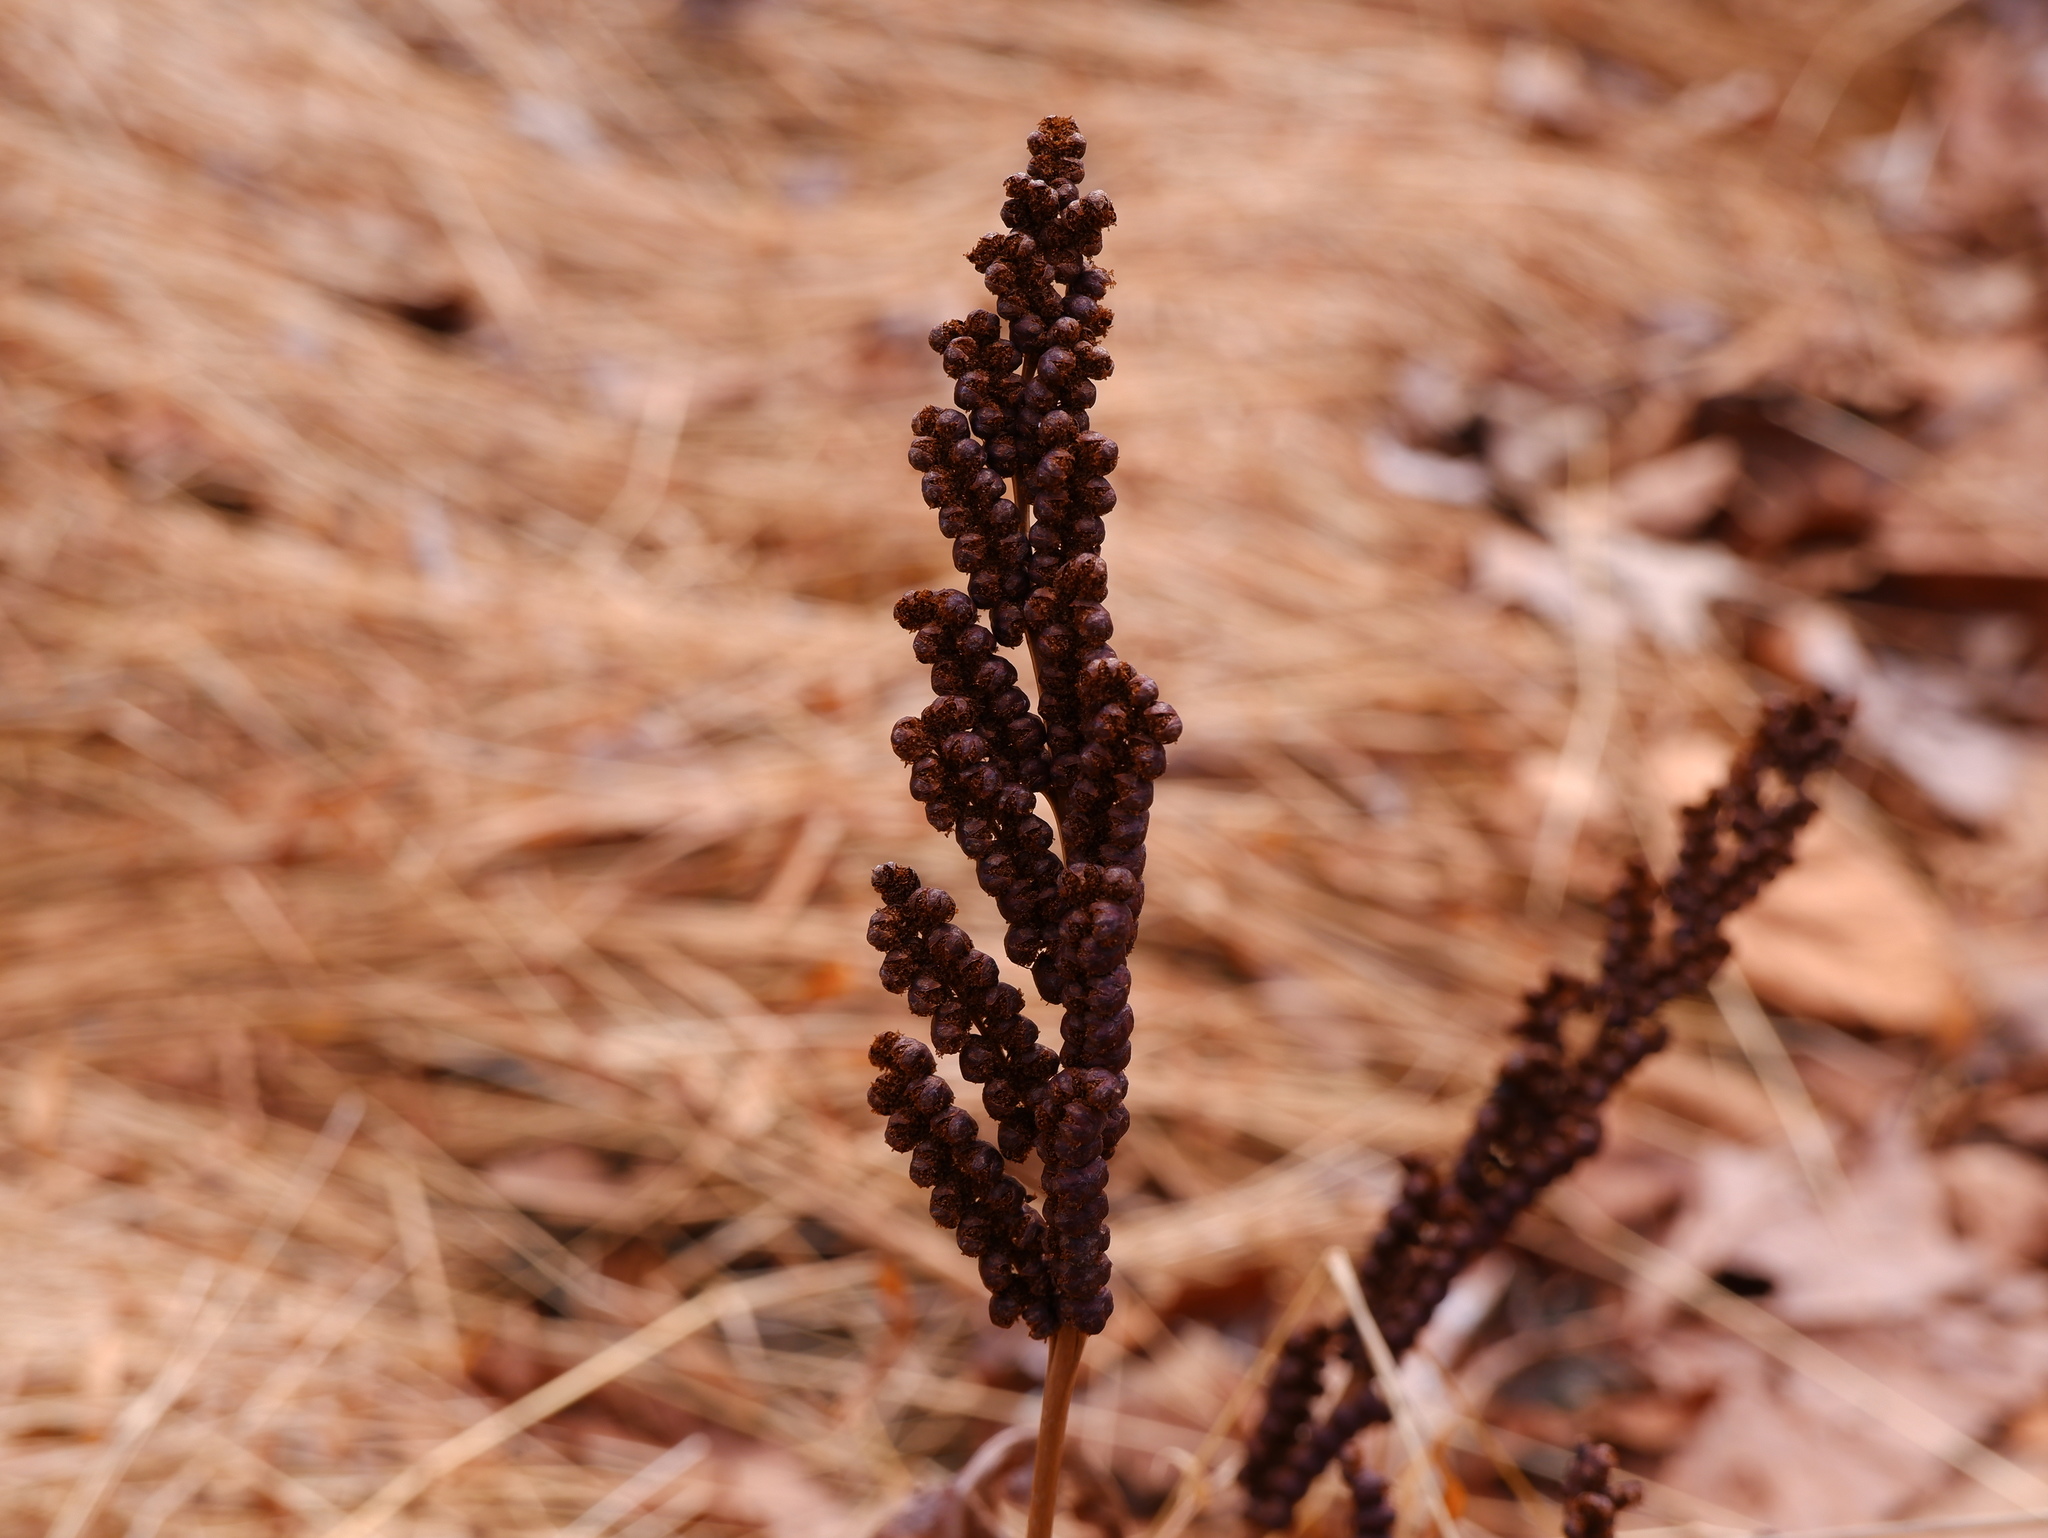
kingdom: Plantae
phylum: Tracheophyta
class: Polypodiopsida
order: Polypodiales
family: Onocleaceae
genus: Onoclea
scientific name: Onoclea sensibilis
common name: Sensitive fern
